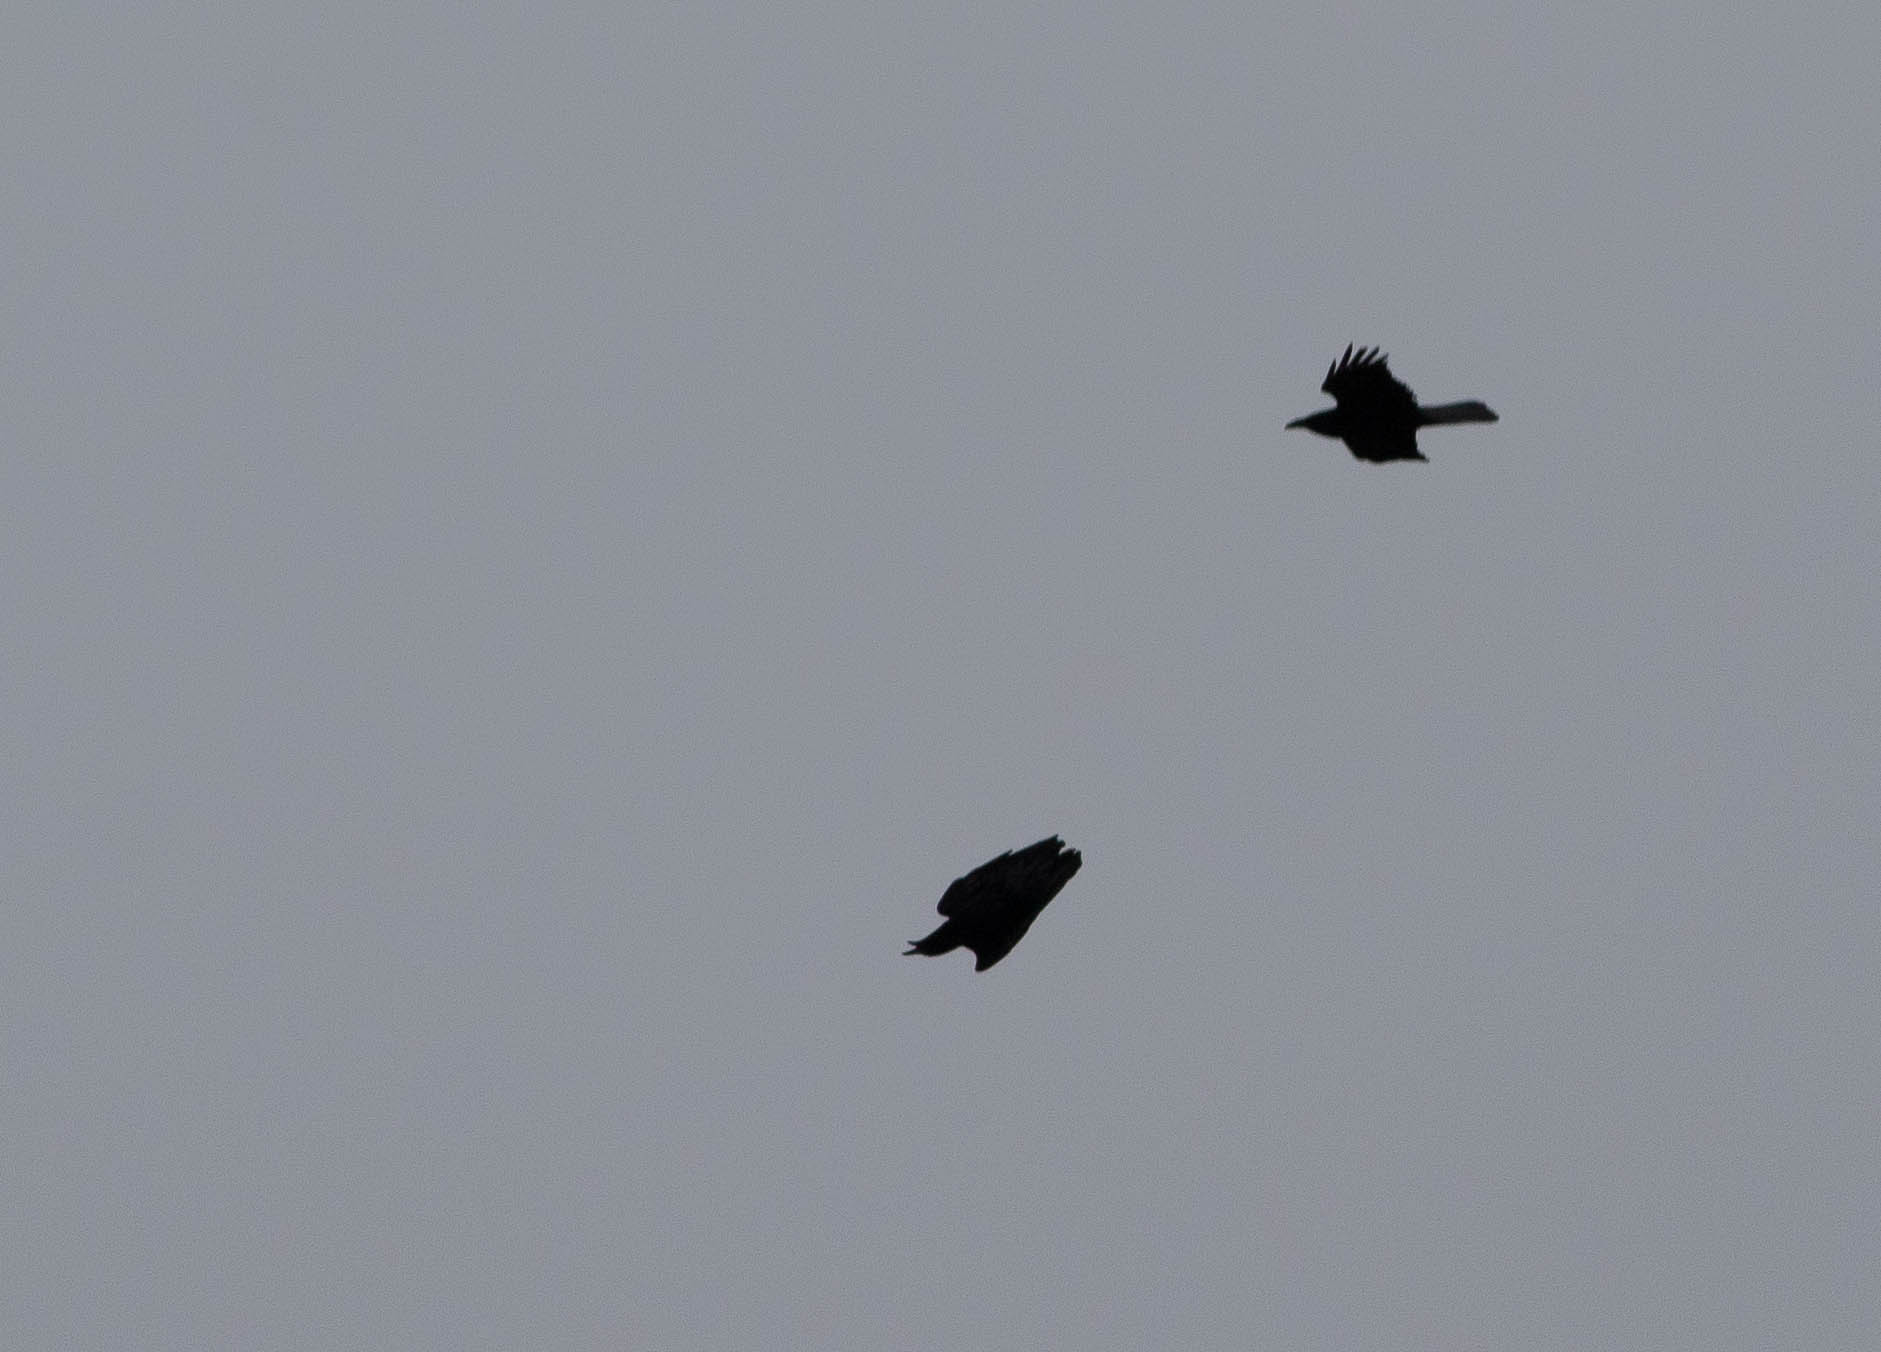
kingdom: Animalia
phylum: Chordata
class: Aves
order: Passeriformes
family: Corvidae
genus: Corvus
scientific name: Corvus corax
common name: Common raven
